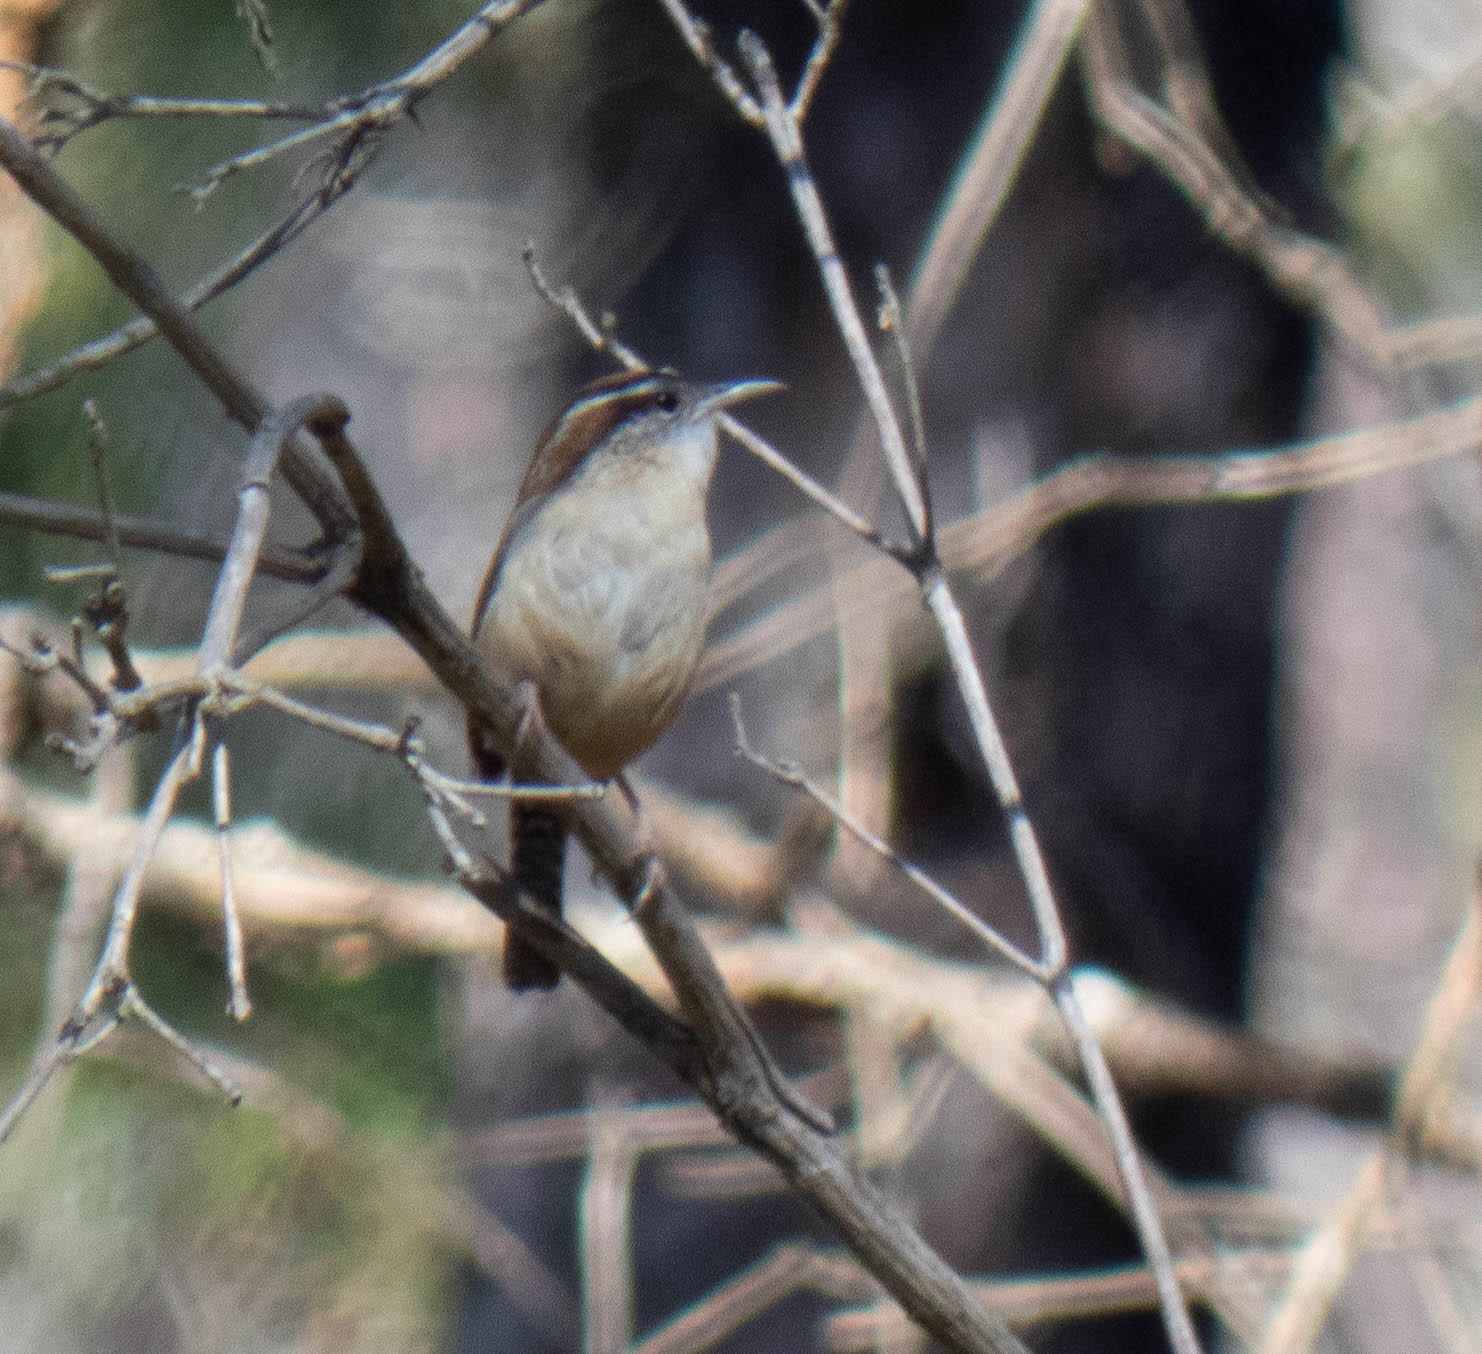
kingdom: Animalia
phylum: Chordata
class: Aves
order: Passeriformes
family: Troglodytidae
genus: Thryothorus
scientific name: Thryothorus ludovicianus
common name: Carolina wren
